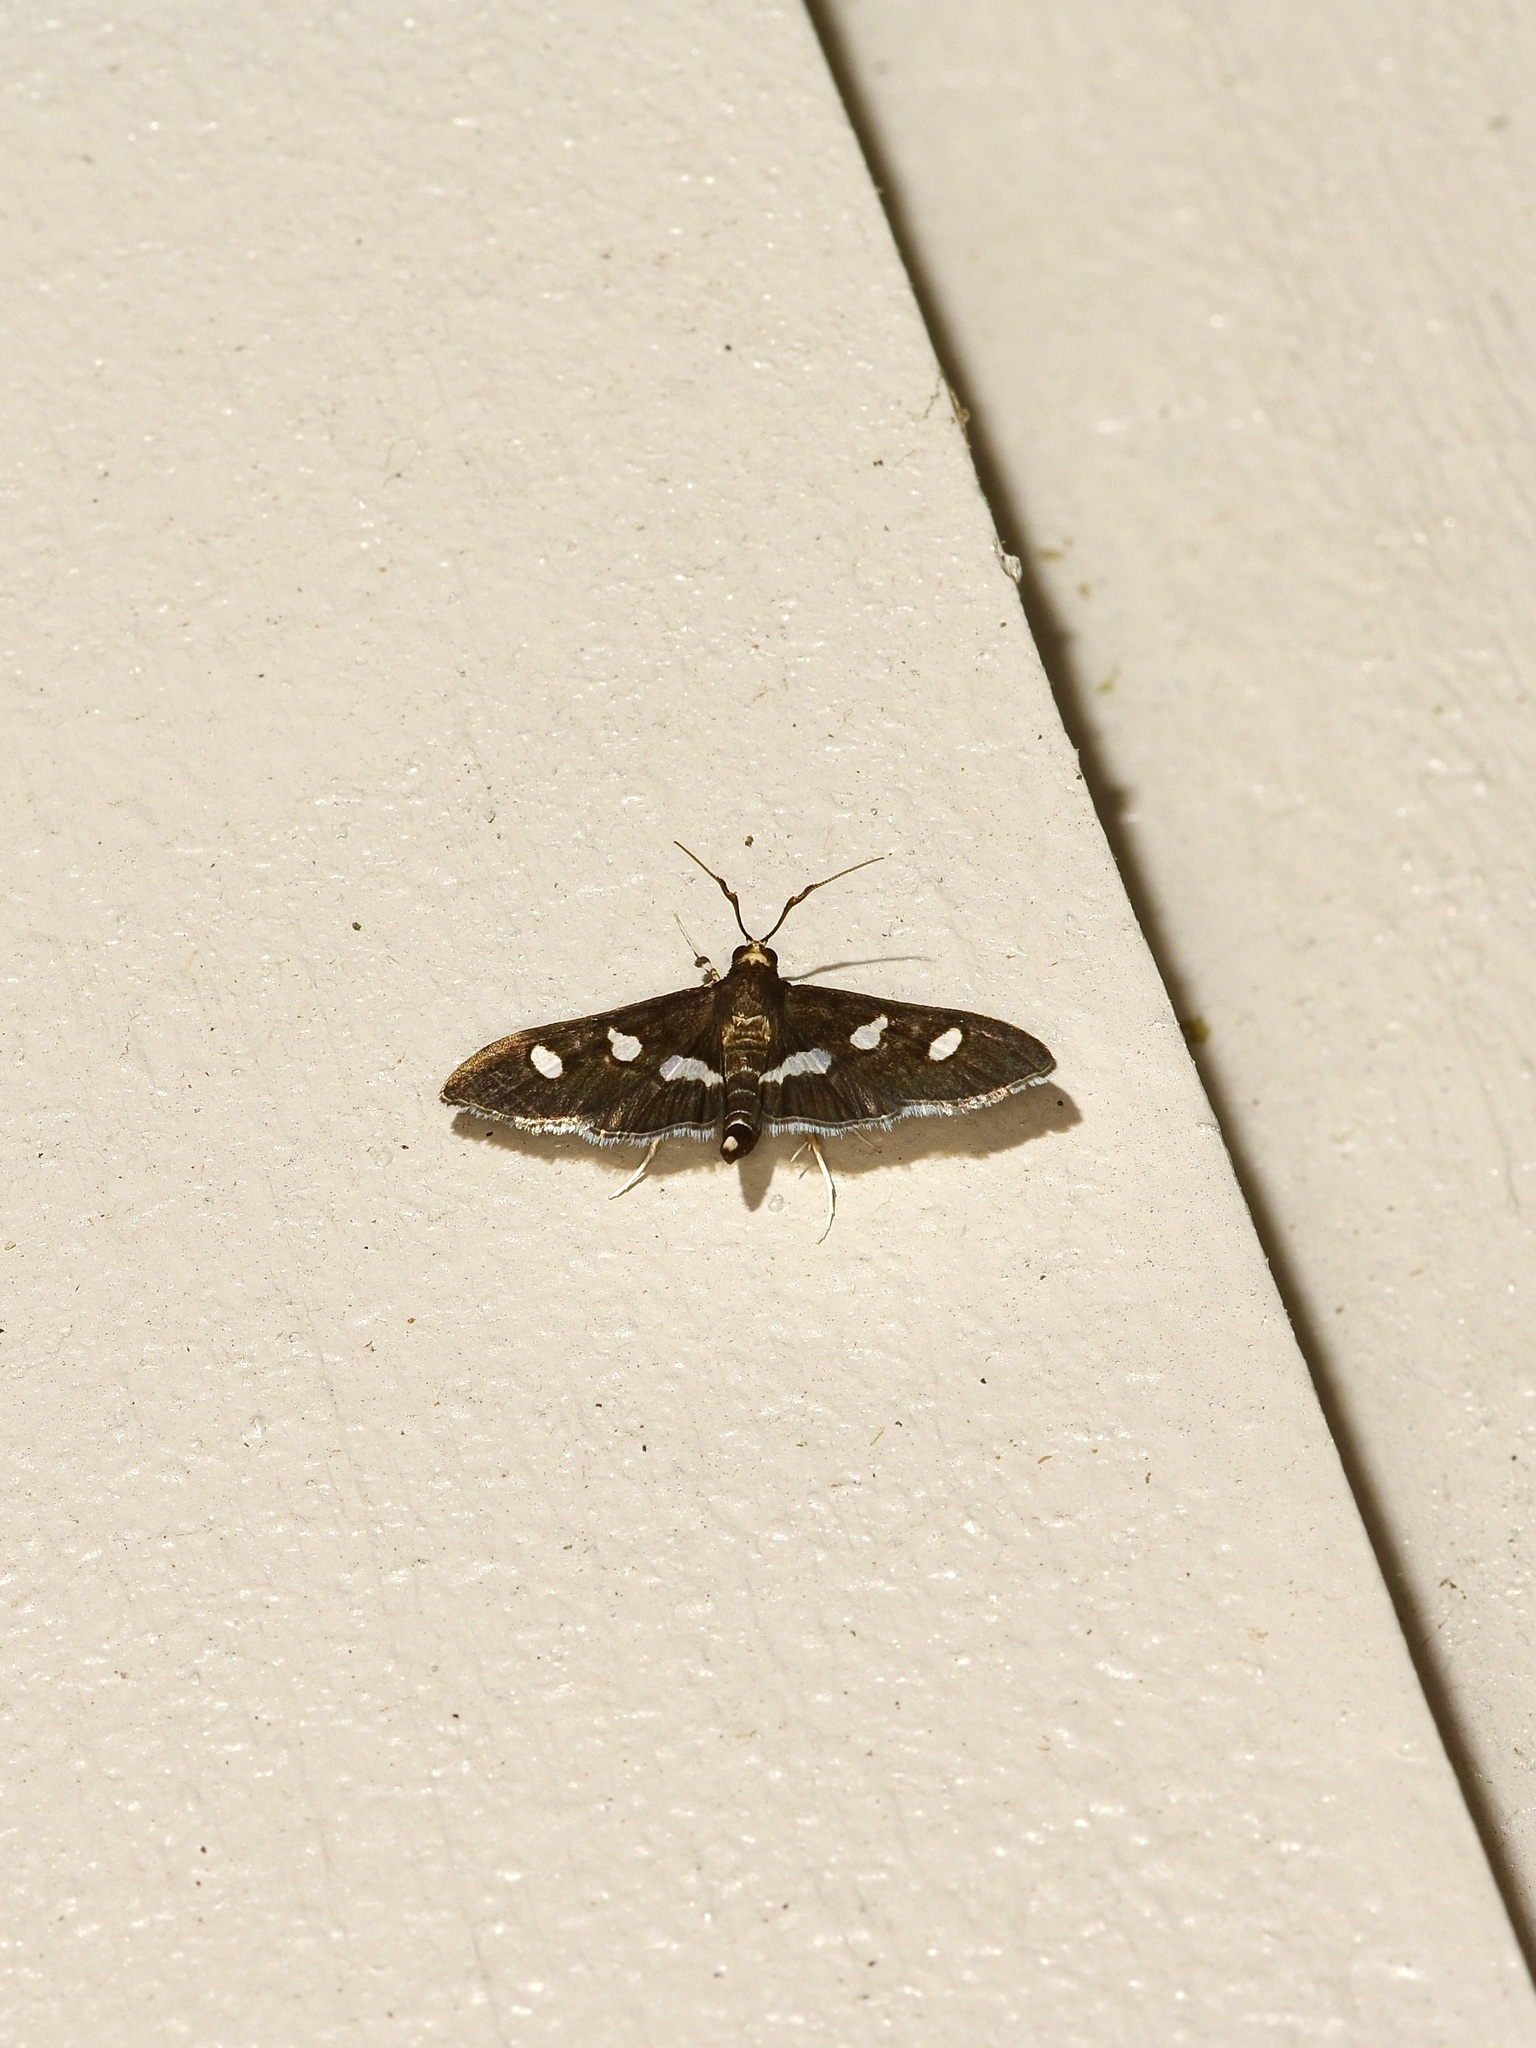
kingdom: Animalia
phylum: Arthropoda
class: Insecta
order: Lepidoptera
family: Crambidae
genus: Desmia
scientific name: Desmia funeralis
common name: Grape leaf folder moth
